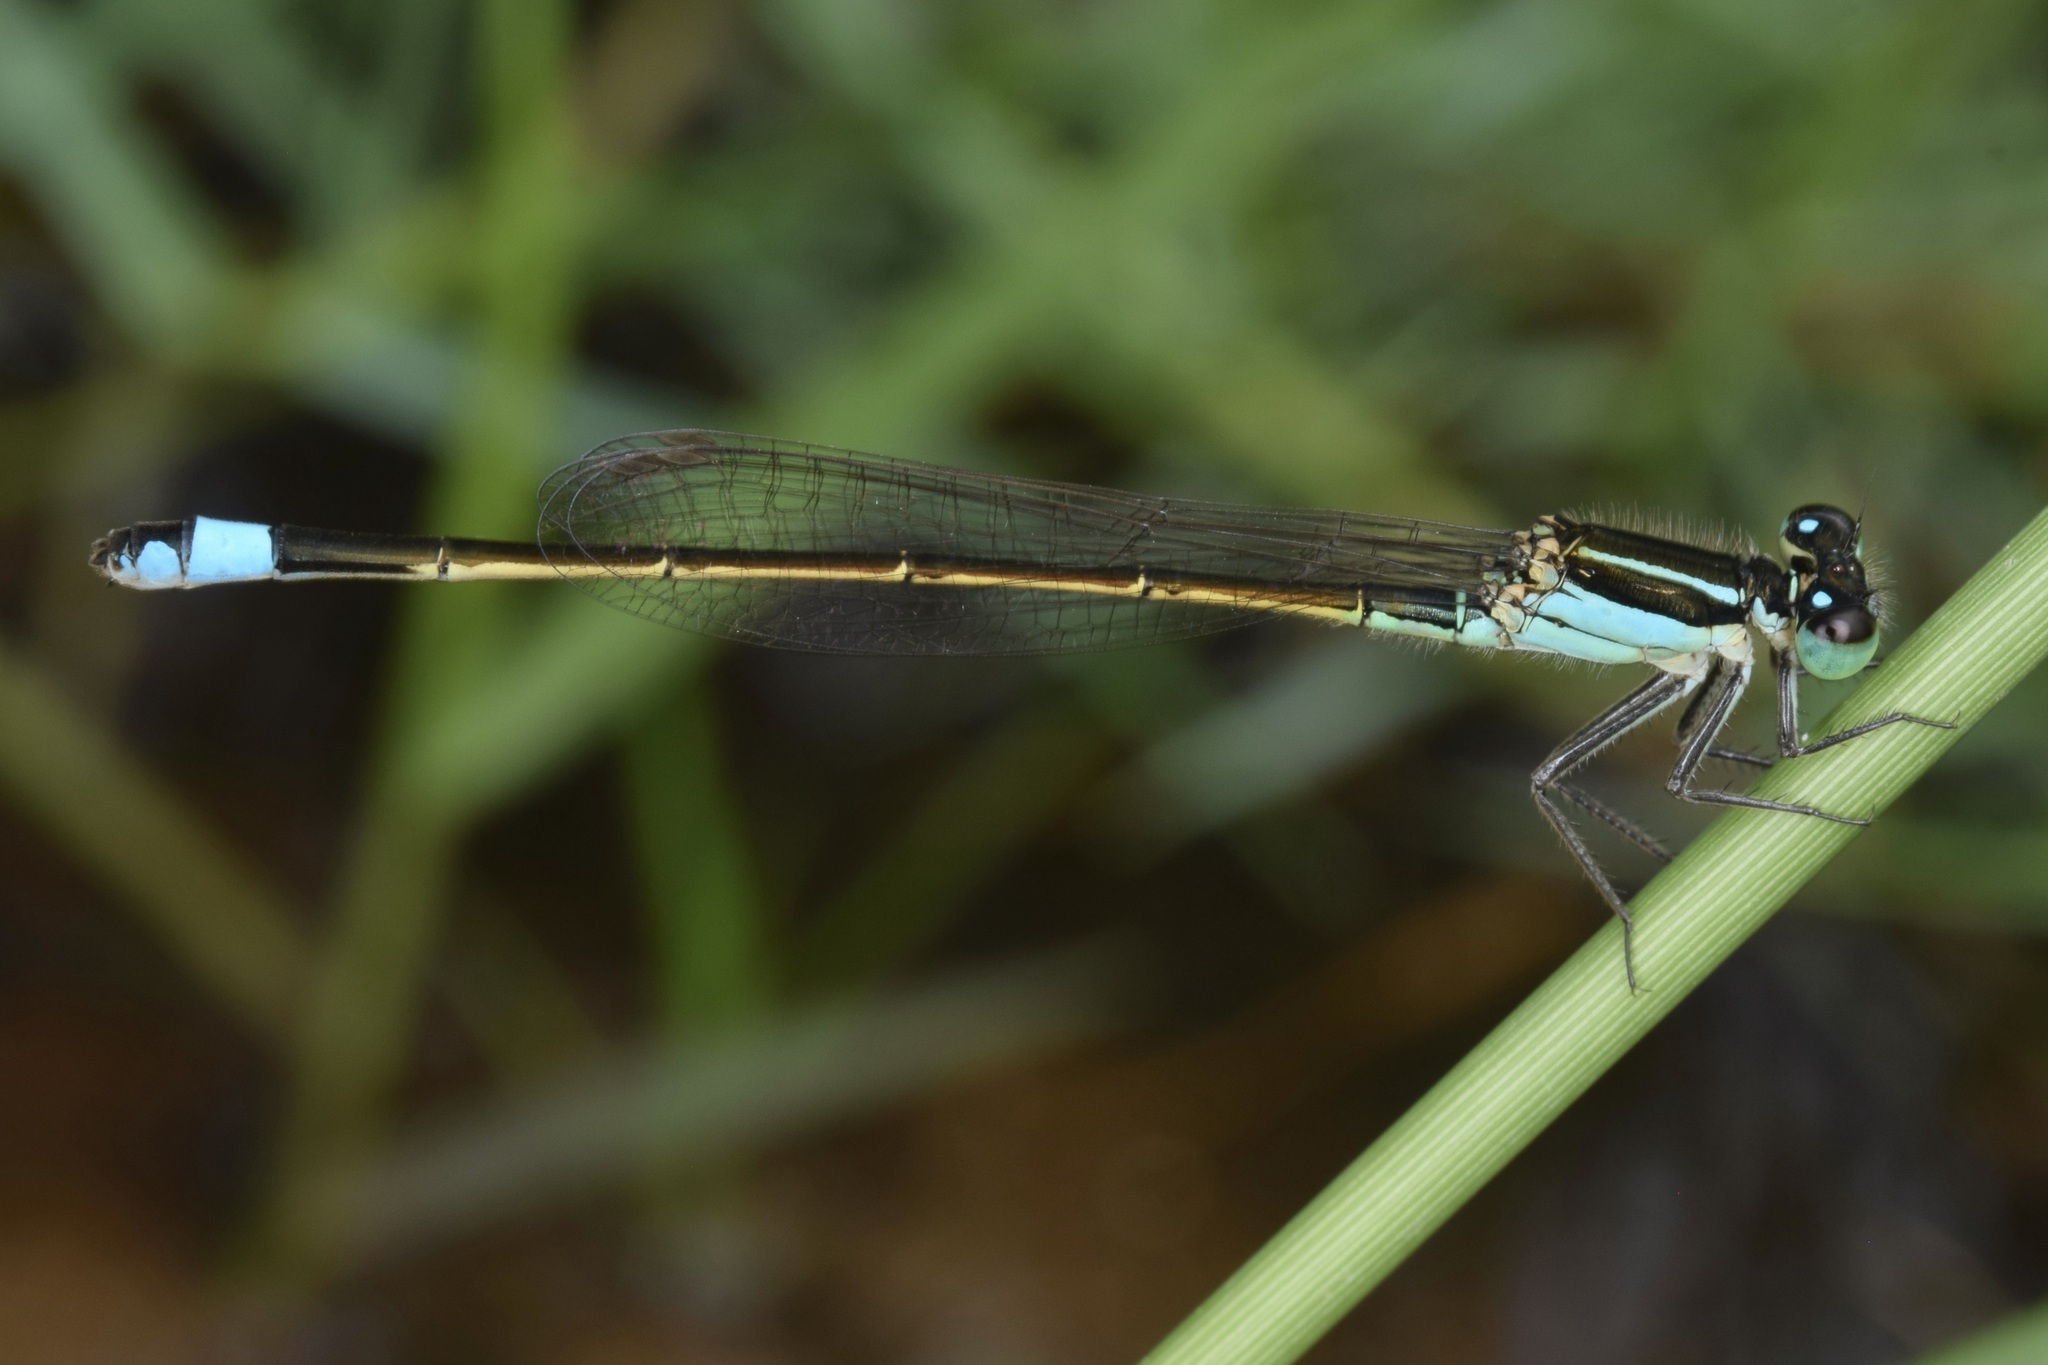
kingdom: Animalia
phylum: Arthropoda
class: Insecta
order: Odonata
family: Coenagrionidae
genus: Ischnura
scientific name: Ischnura ramburii
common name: Rambur's forktail
